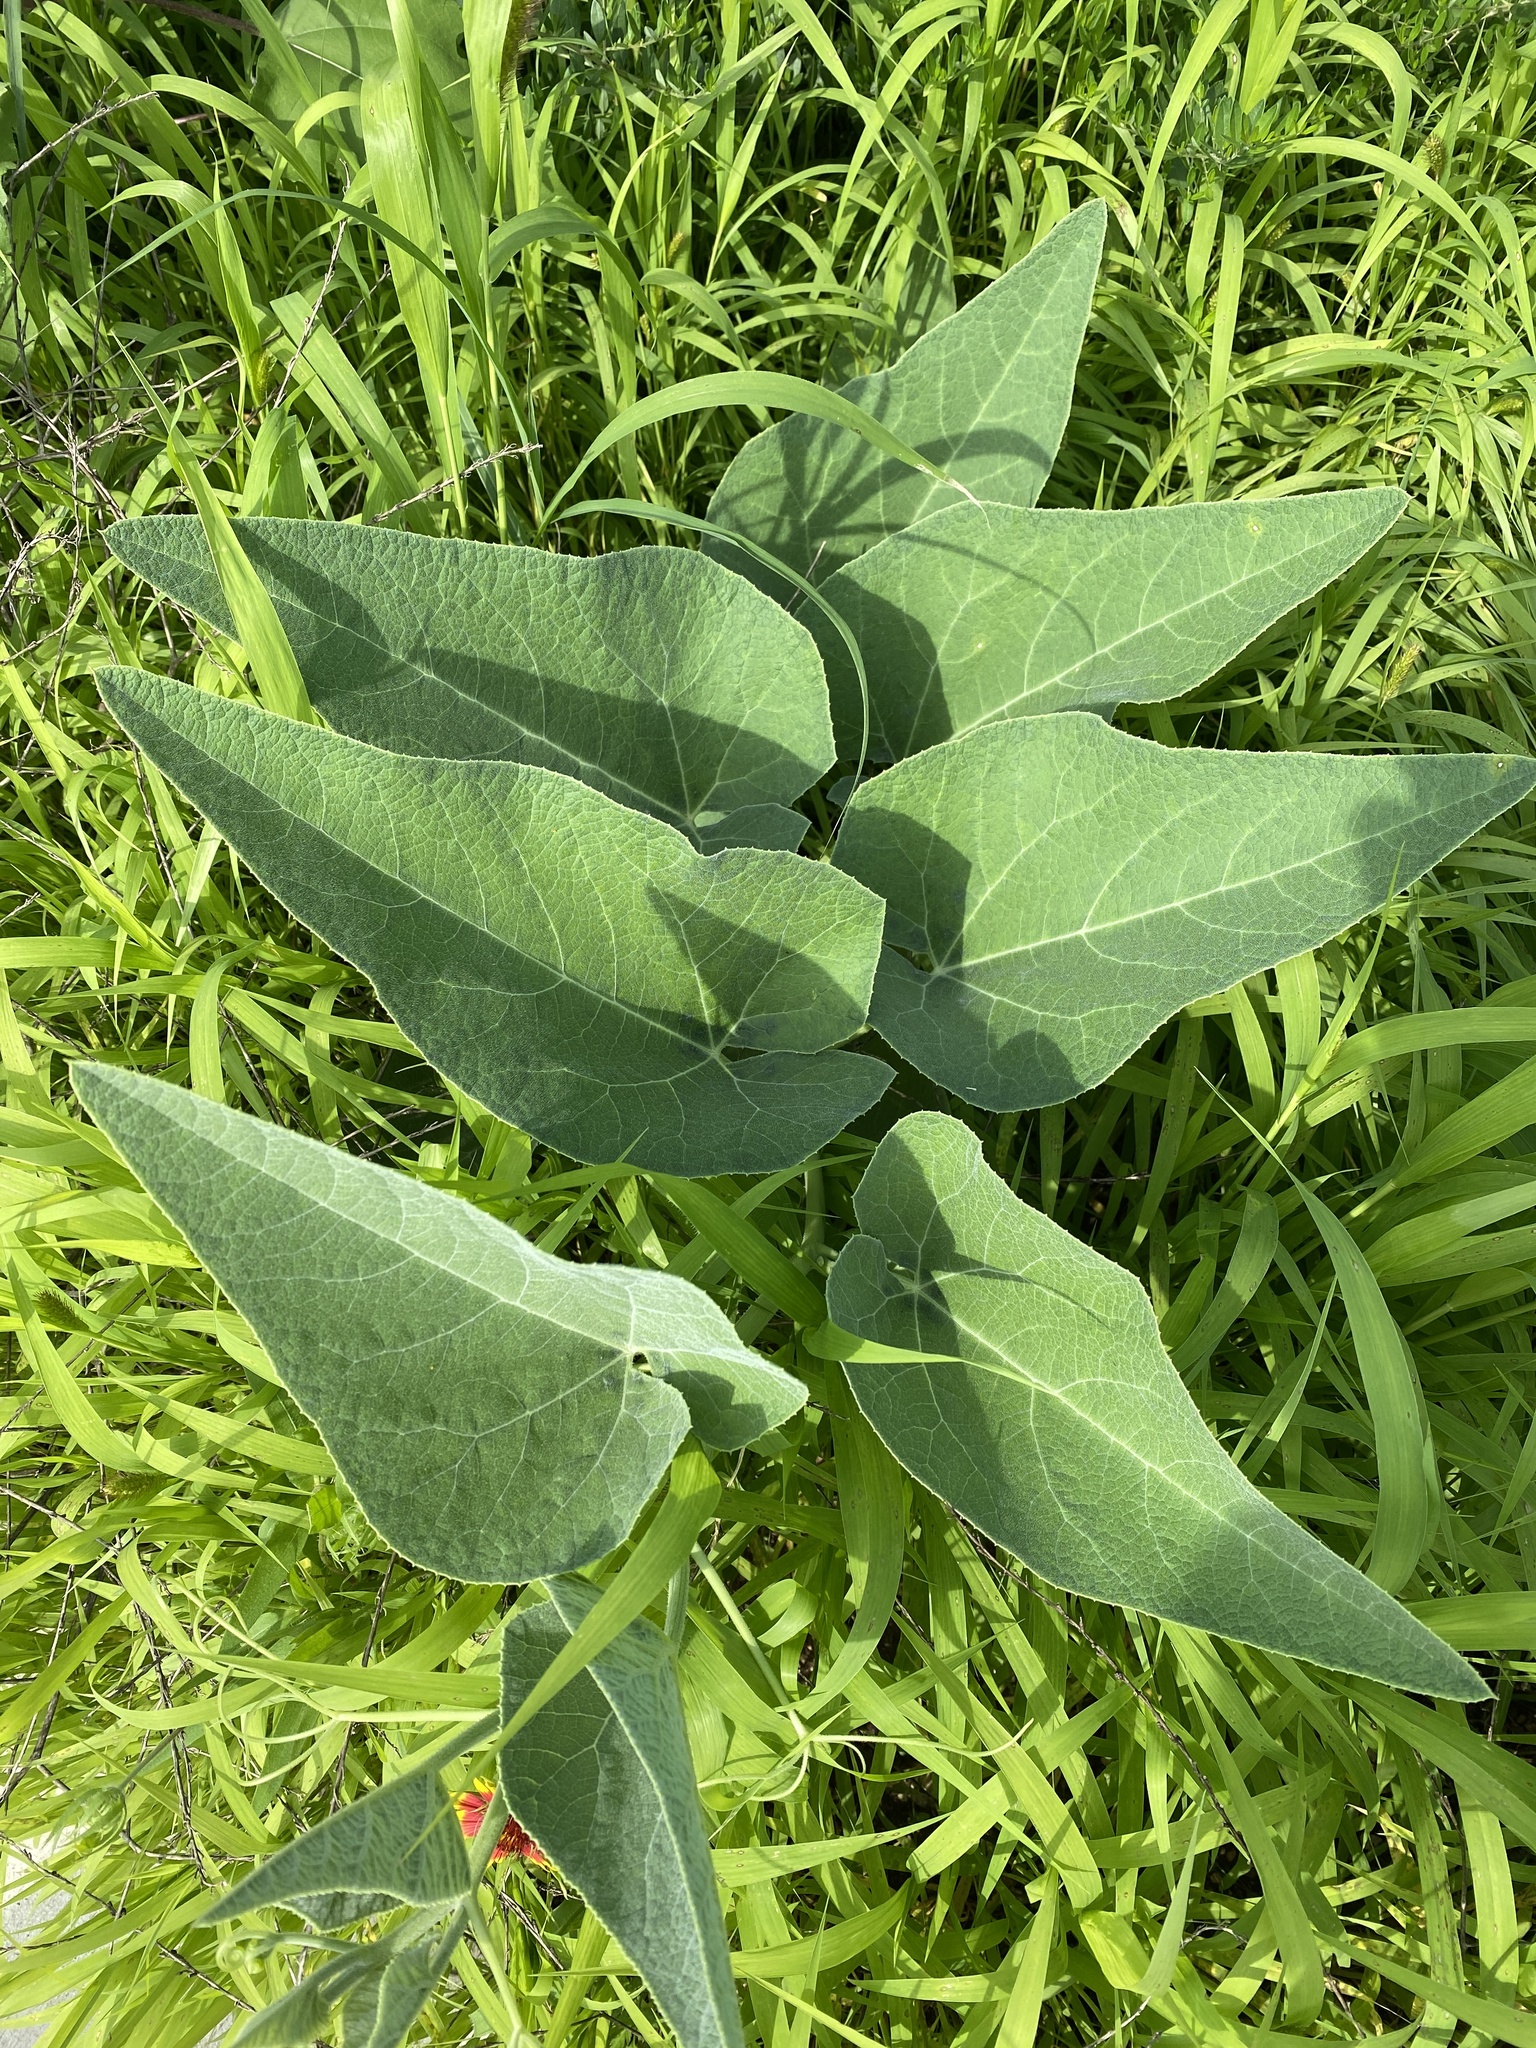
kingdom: Plantae
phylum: Tracheophyta
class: Magnoliopsida
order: Cucurbitales
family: Cucurbitaceae
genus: Cucurbita
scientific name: Cucurbita foetidissima
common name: Buffalo gourd
